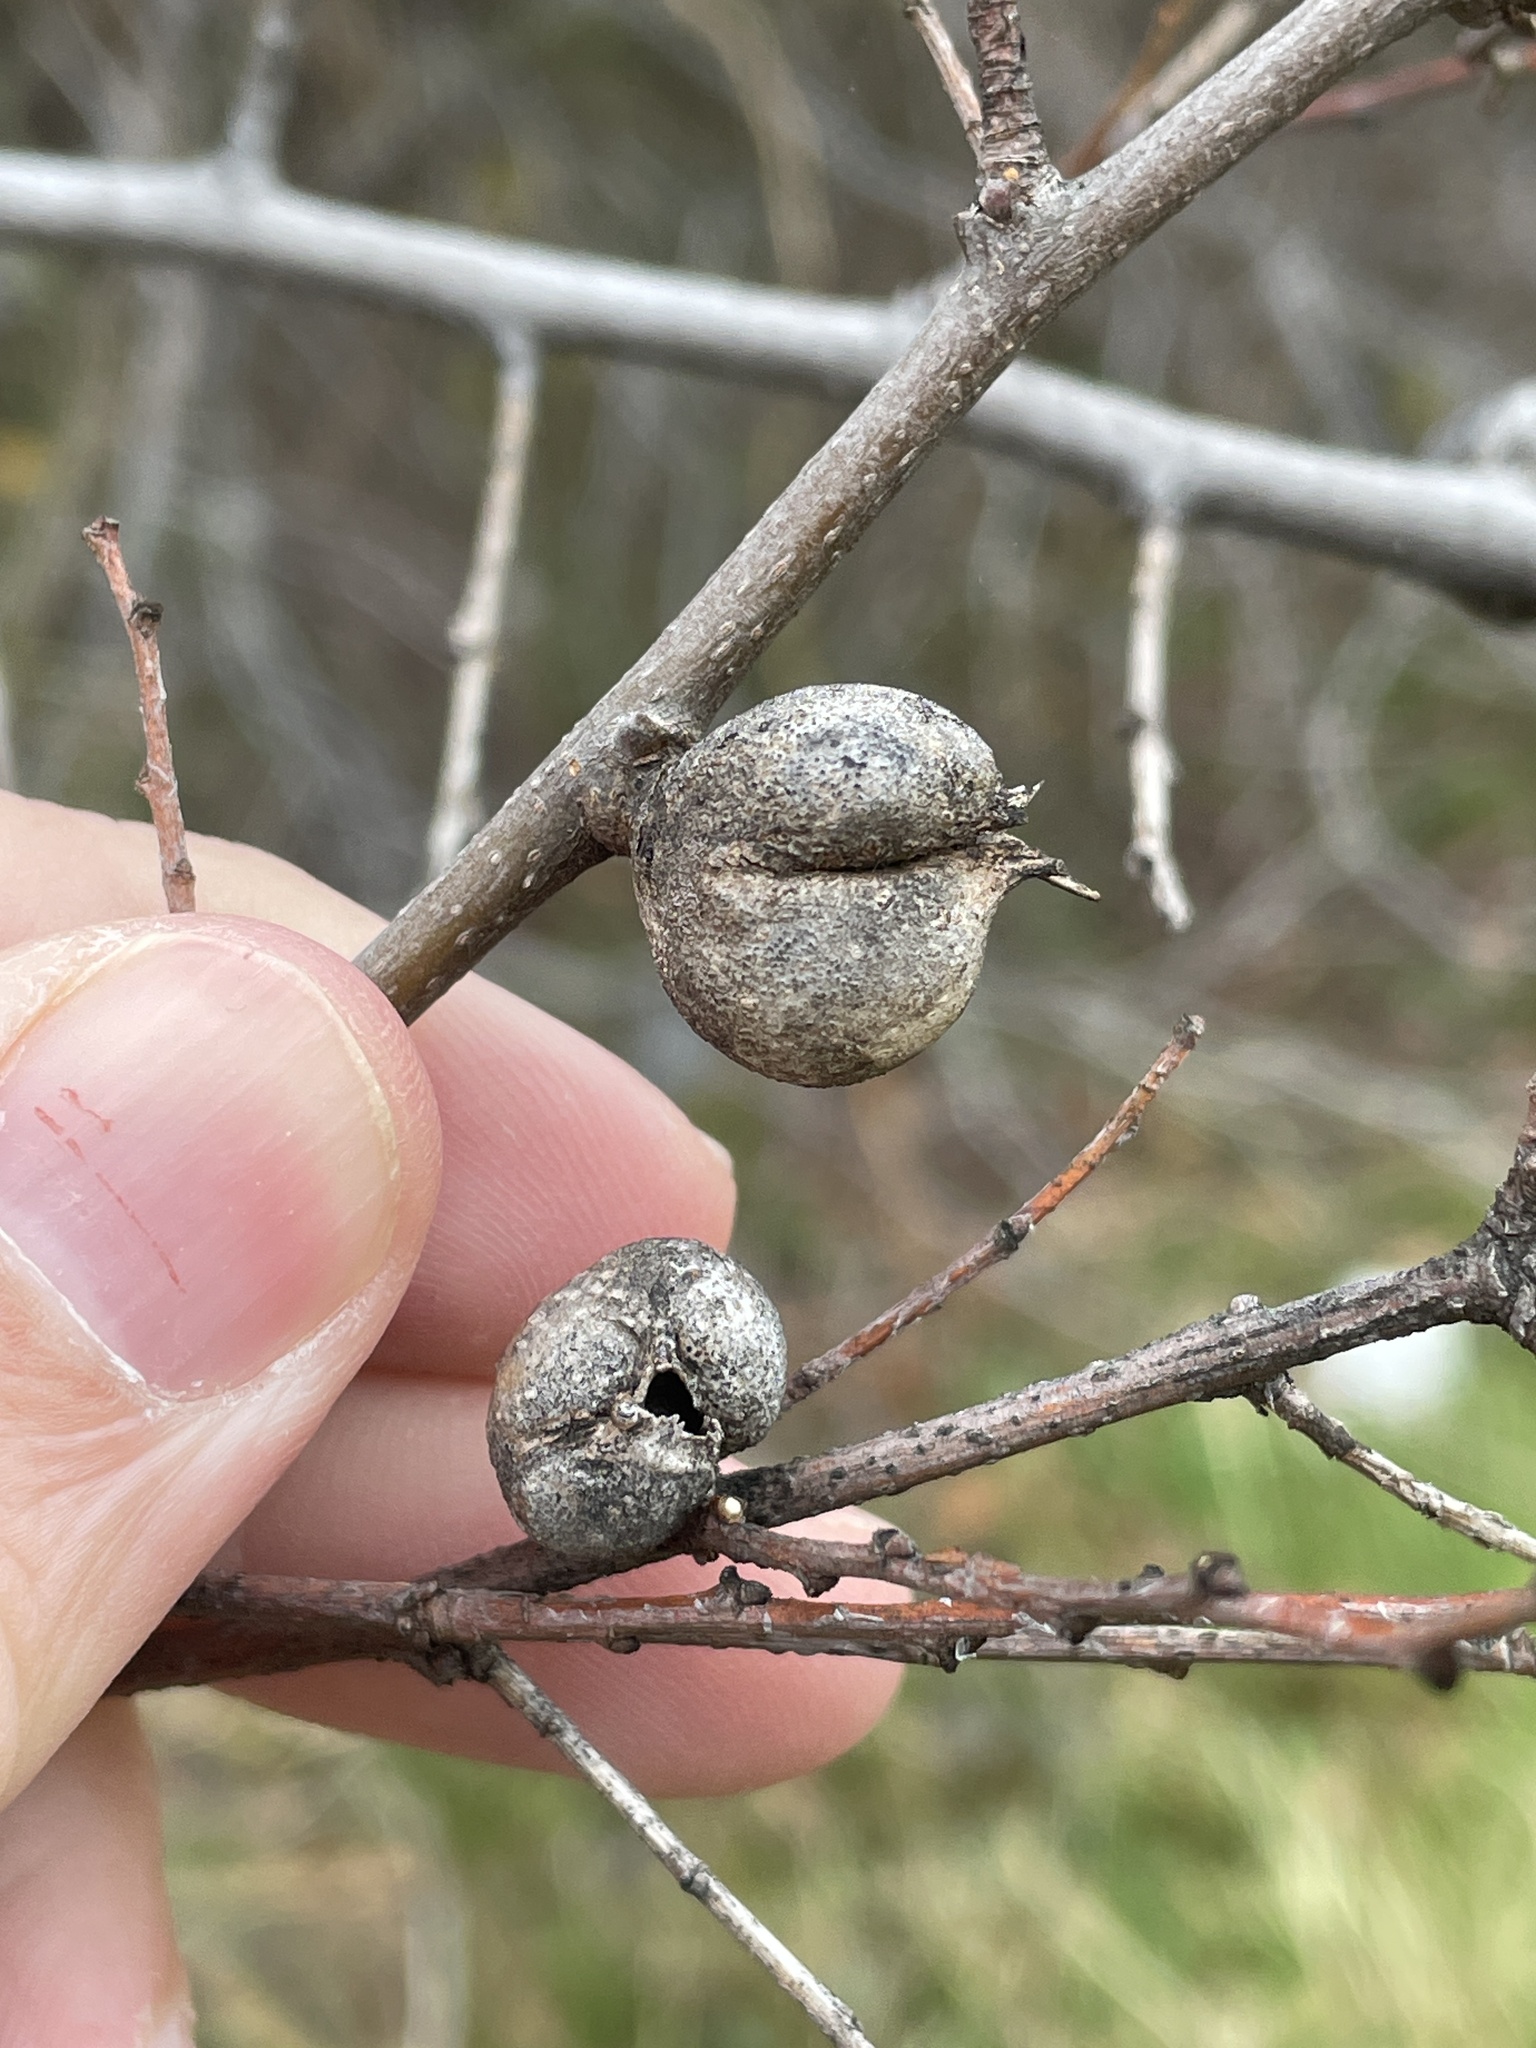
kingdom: Animalia
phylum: Arthropoda
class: Insecta
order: Hemiptera
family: Aphalaridae
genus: Pachypsylla
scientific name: Pachypsylla venusta
